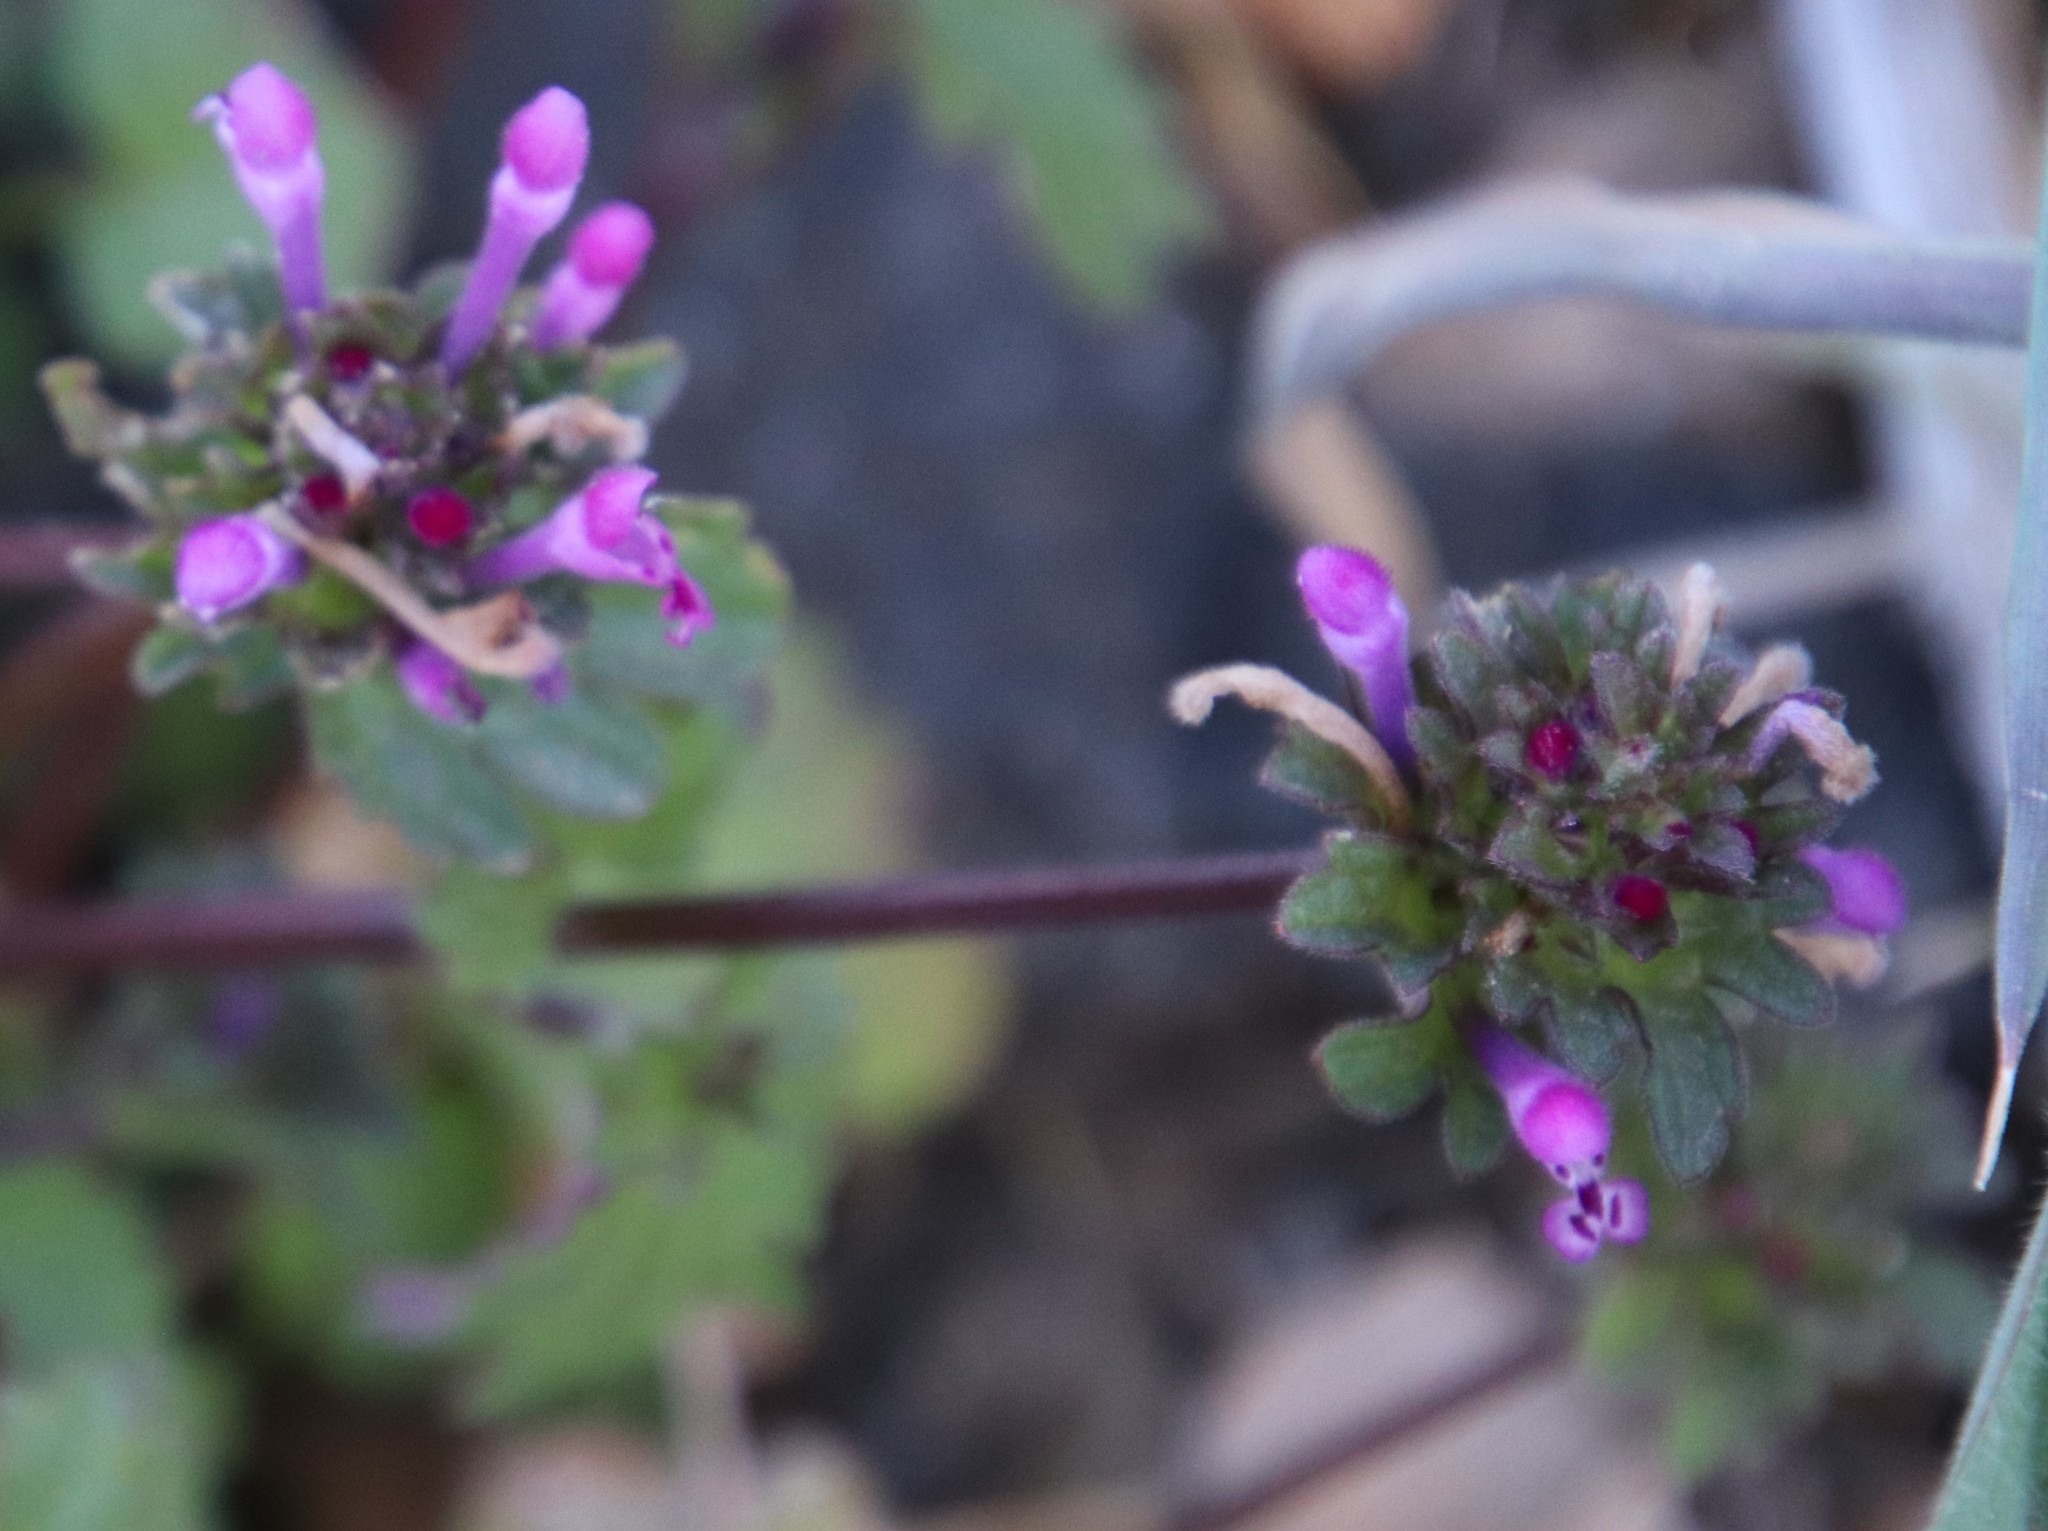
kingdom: Plantae
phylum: Tracheophyta
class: Magnoliopsida
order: Lamiales
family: Lamiaceae
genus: Lamium
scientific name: Lamium amplexicaule
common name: Henbit dead-nettle
